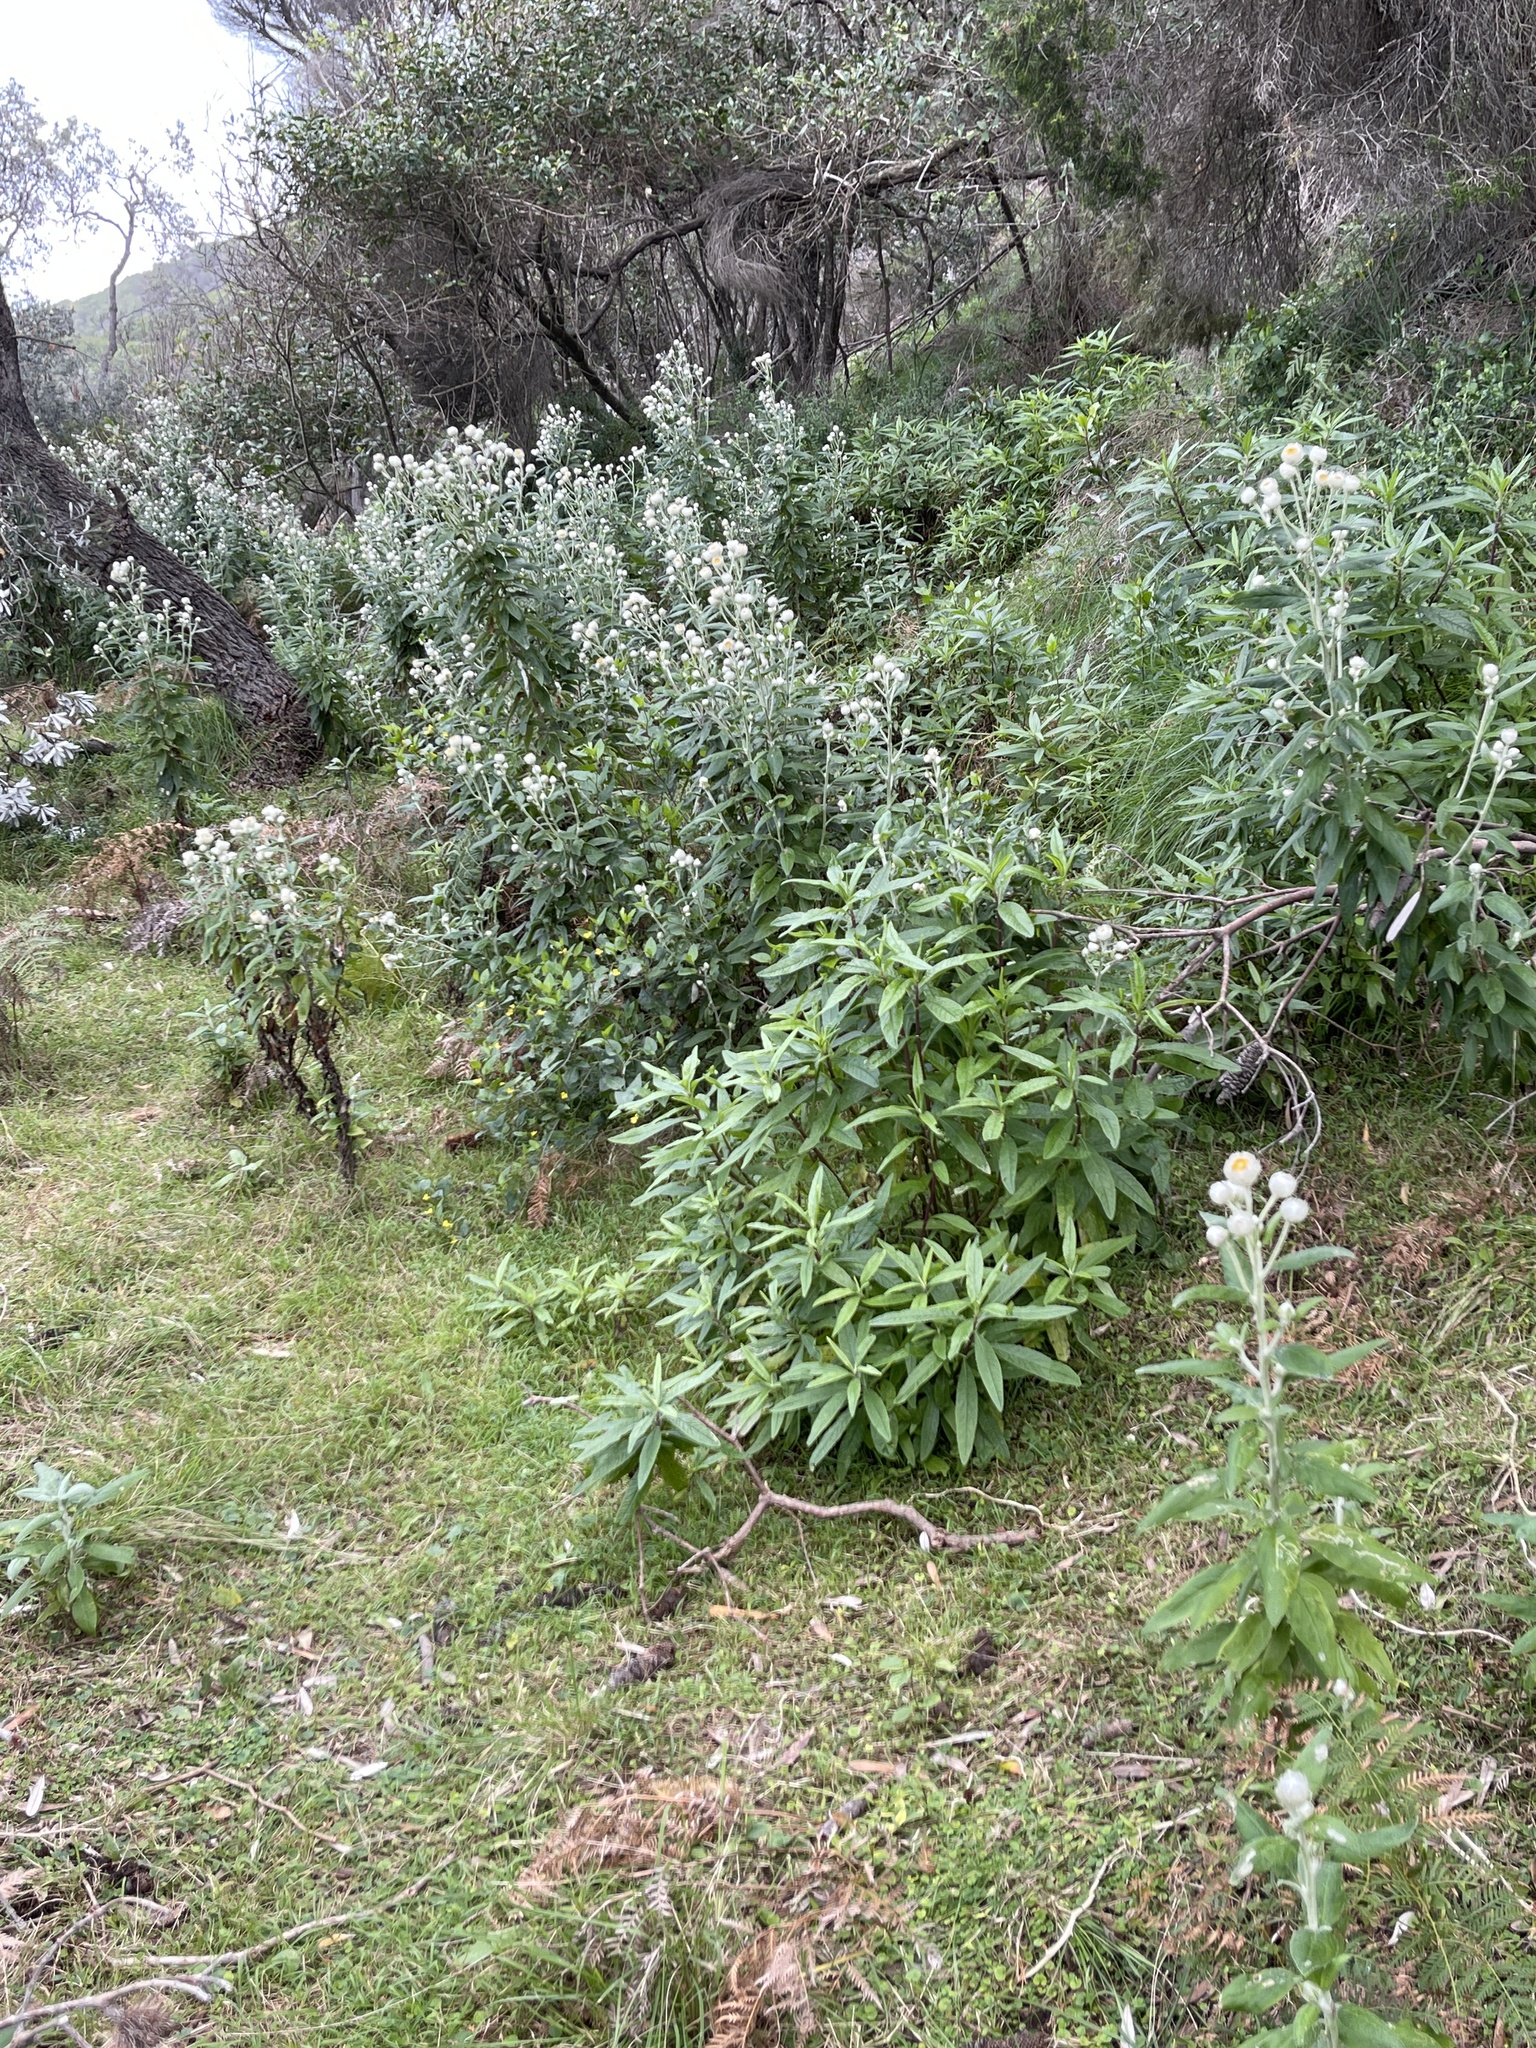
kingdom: Plantae
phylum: Tracheophyta
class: Magnoliopsida
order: Asterales
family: Asteraceae
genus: Leucozoma
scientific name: Leucozoma elatum
